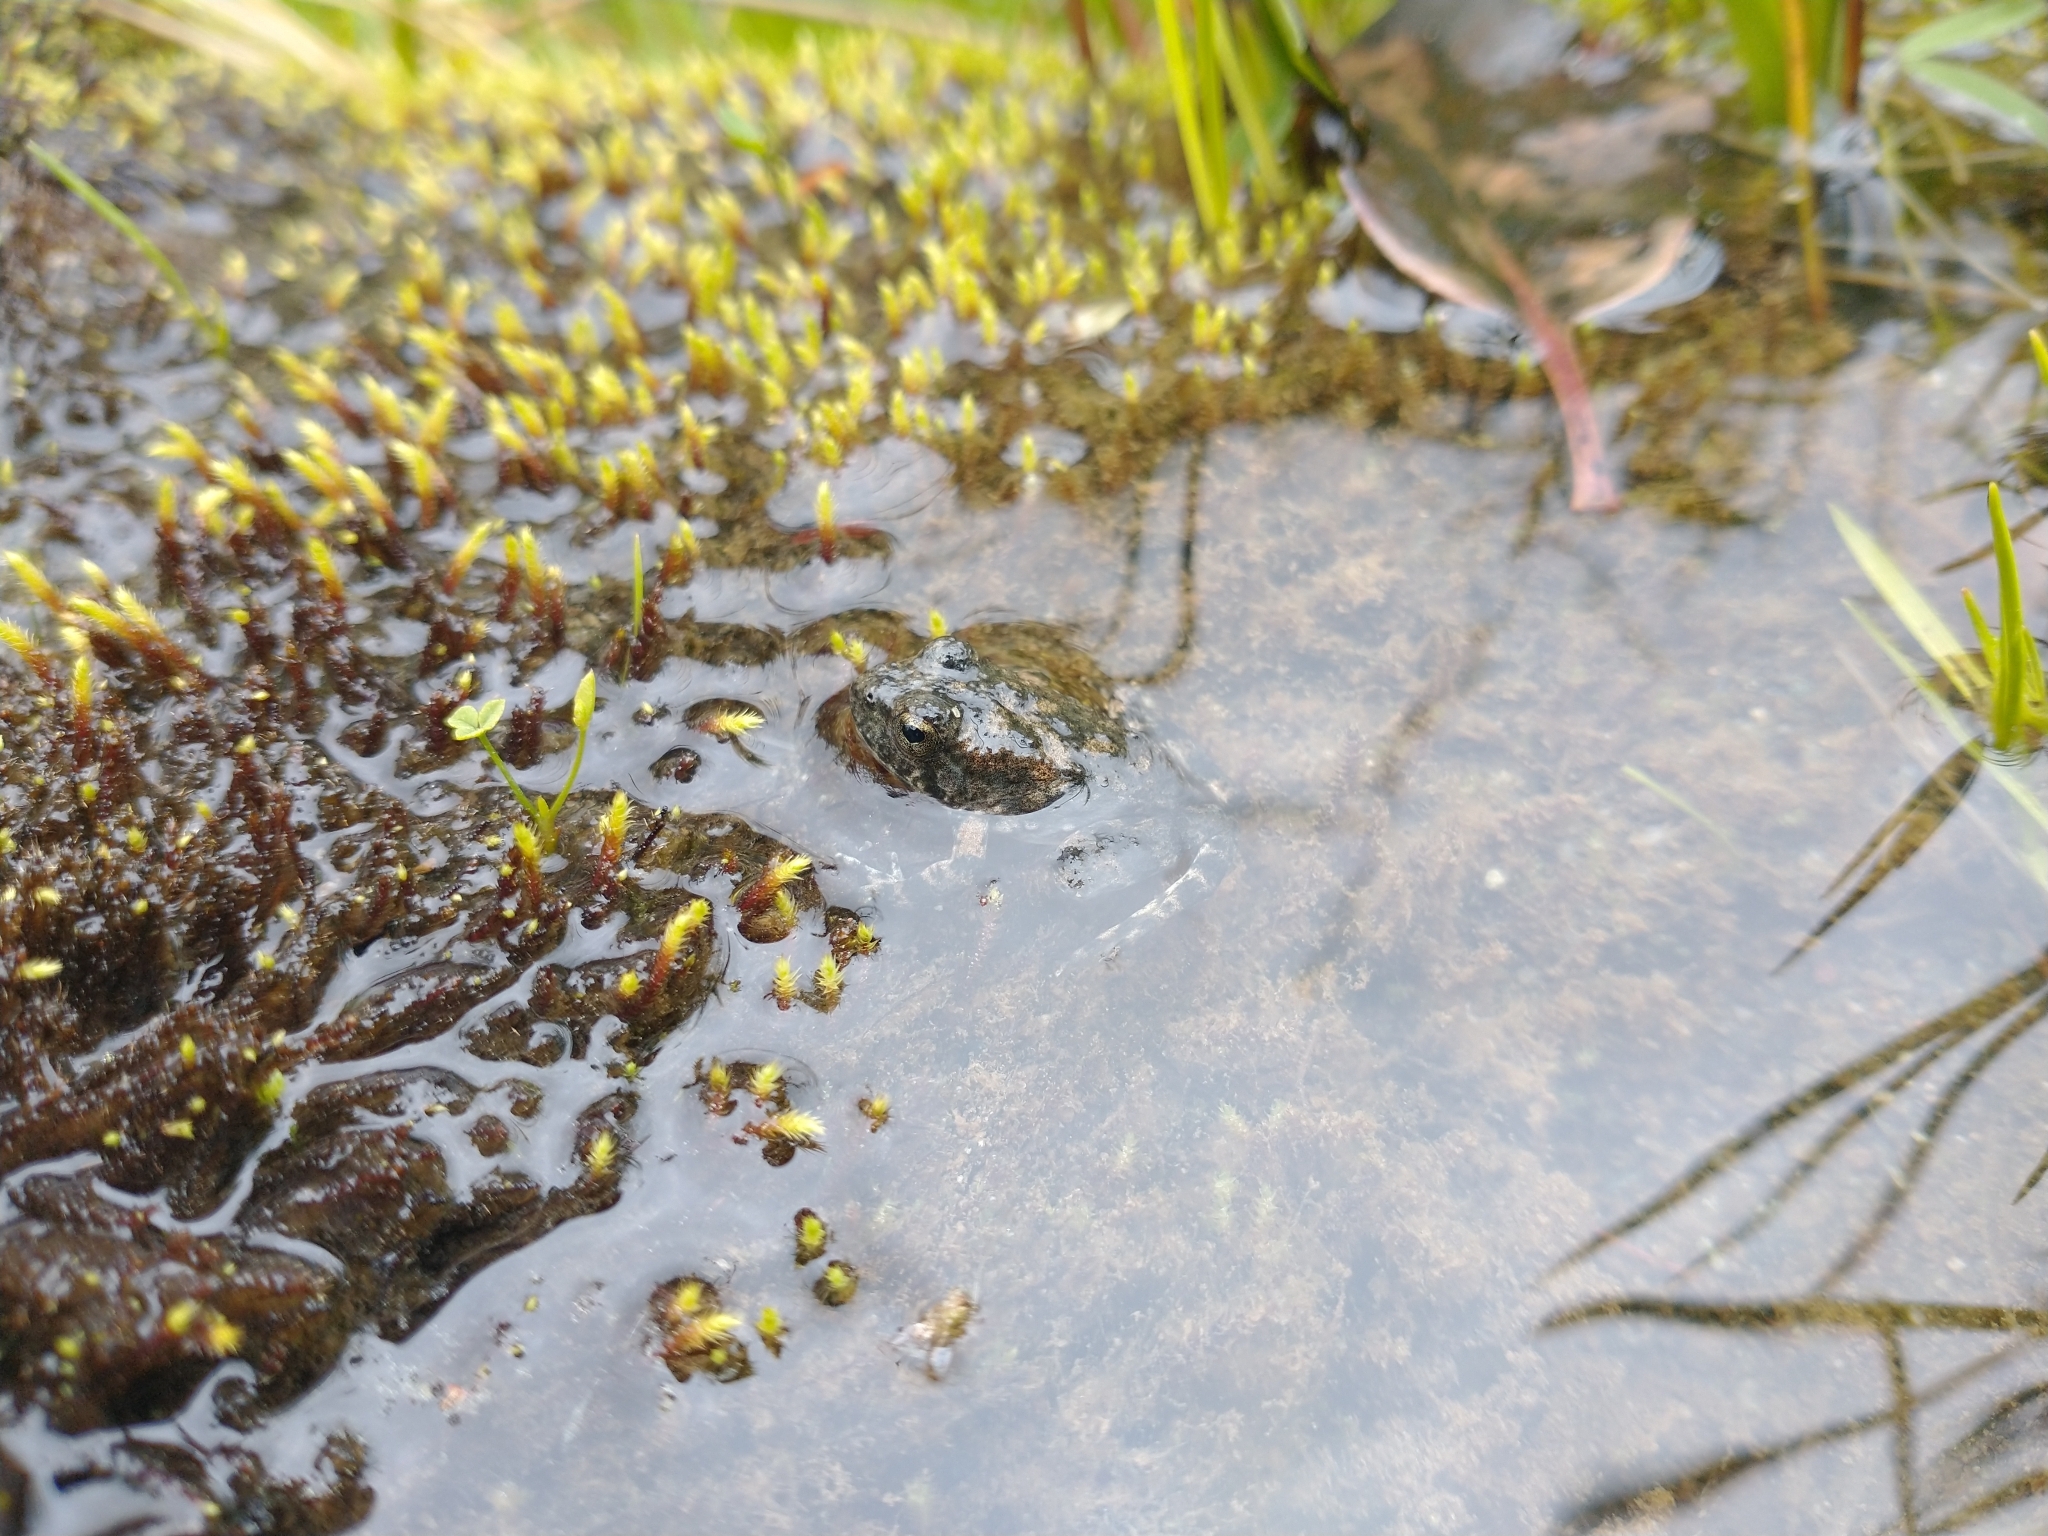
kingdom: Animalia
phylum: Chordata
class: Amphibia
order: Anura
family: Ranidae
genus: Rana
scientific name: Rana boylii
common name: Foothill yellow-legged frog
